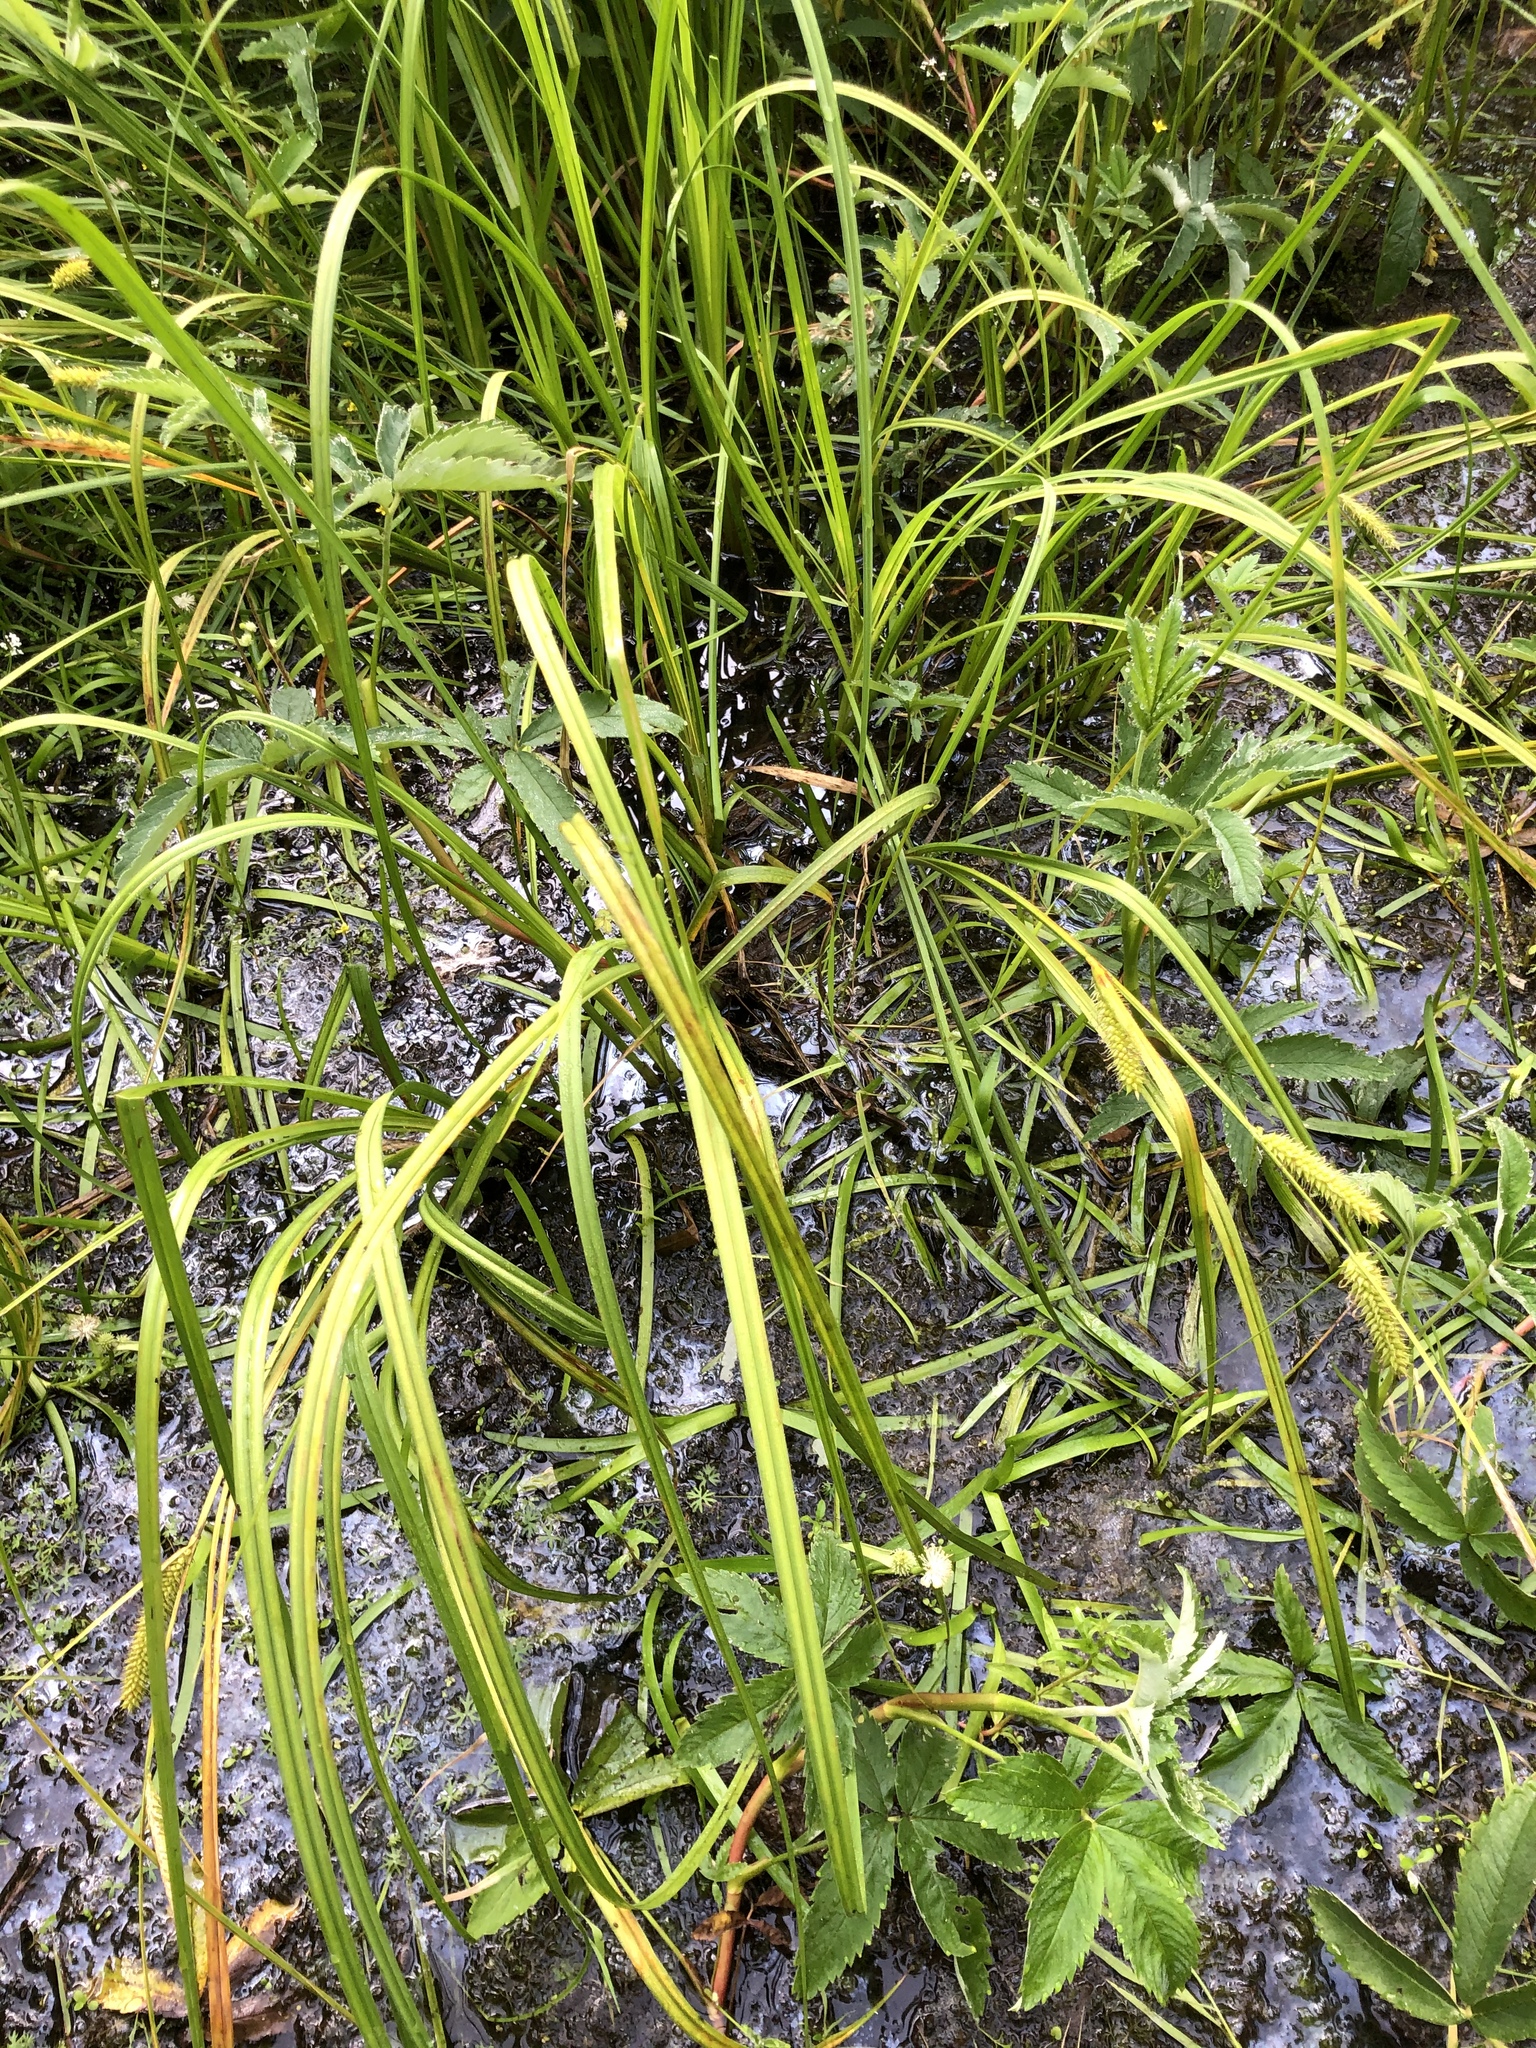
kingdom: Plantae
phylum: Tracheophyta
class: Liliopsida
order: Poales
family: Cyperaceae
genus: Carex
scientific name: Carex vesicaria
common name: Bladder-sedge
